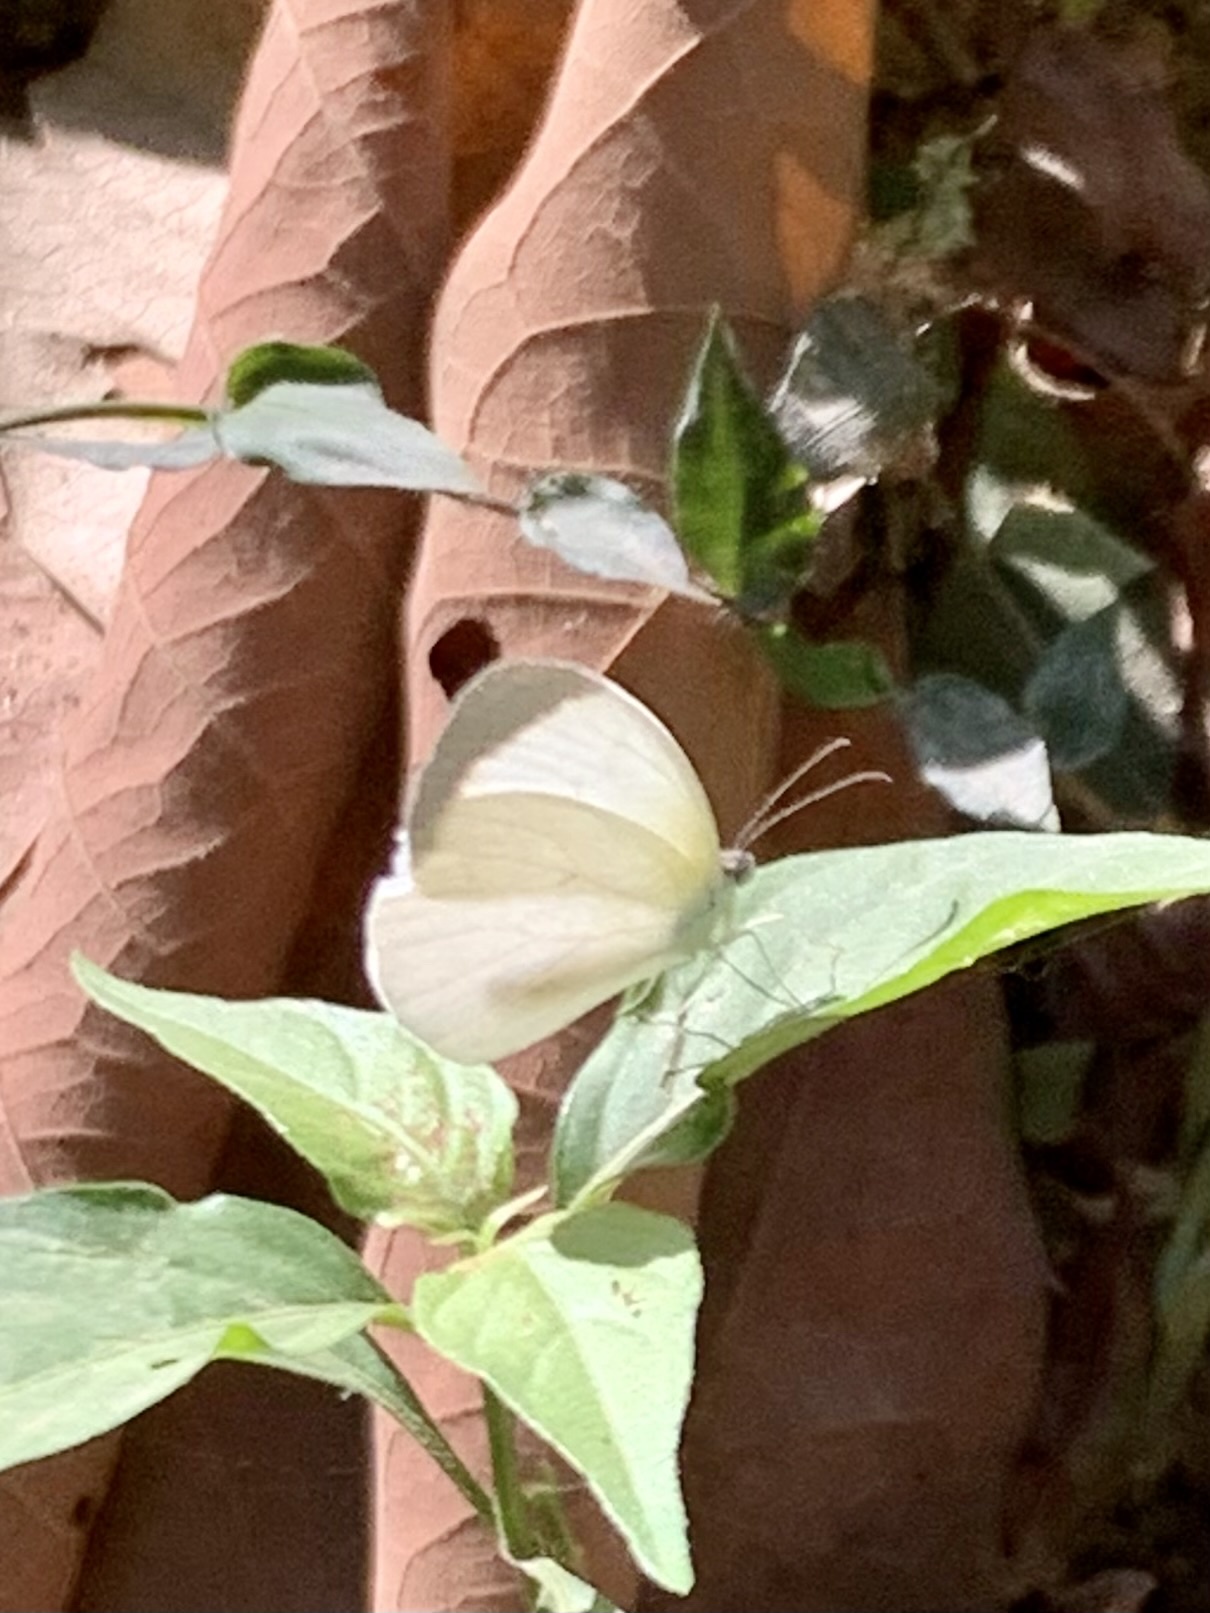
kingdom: Animalia
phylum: Arthropoda
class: Insecta
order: Lepidoptera
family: Pieridae
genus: Abaeis
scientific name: Abaeis albula
